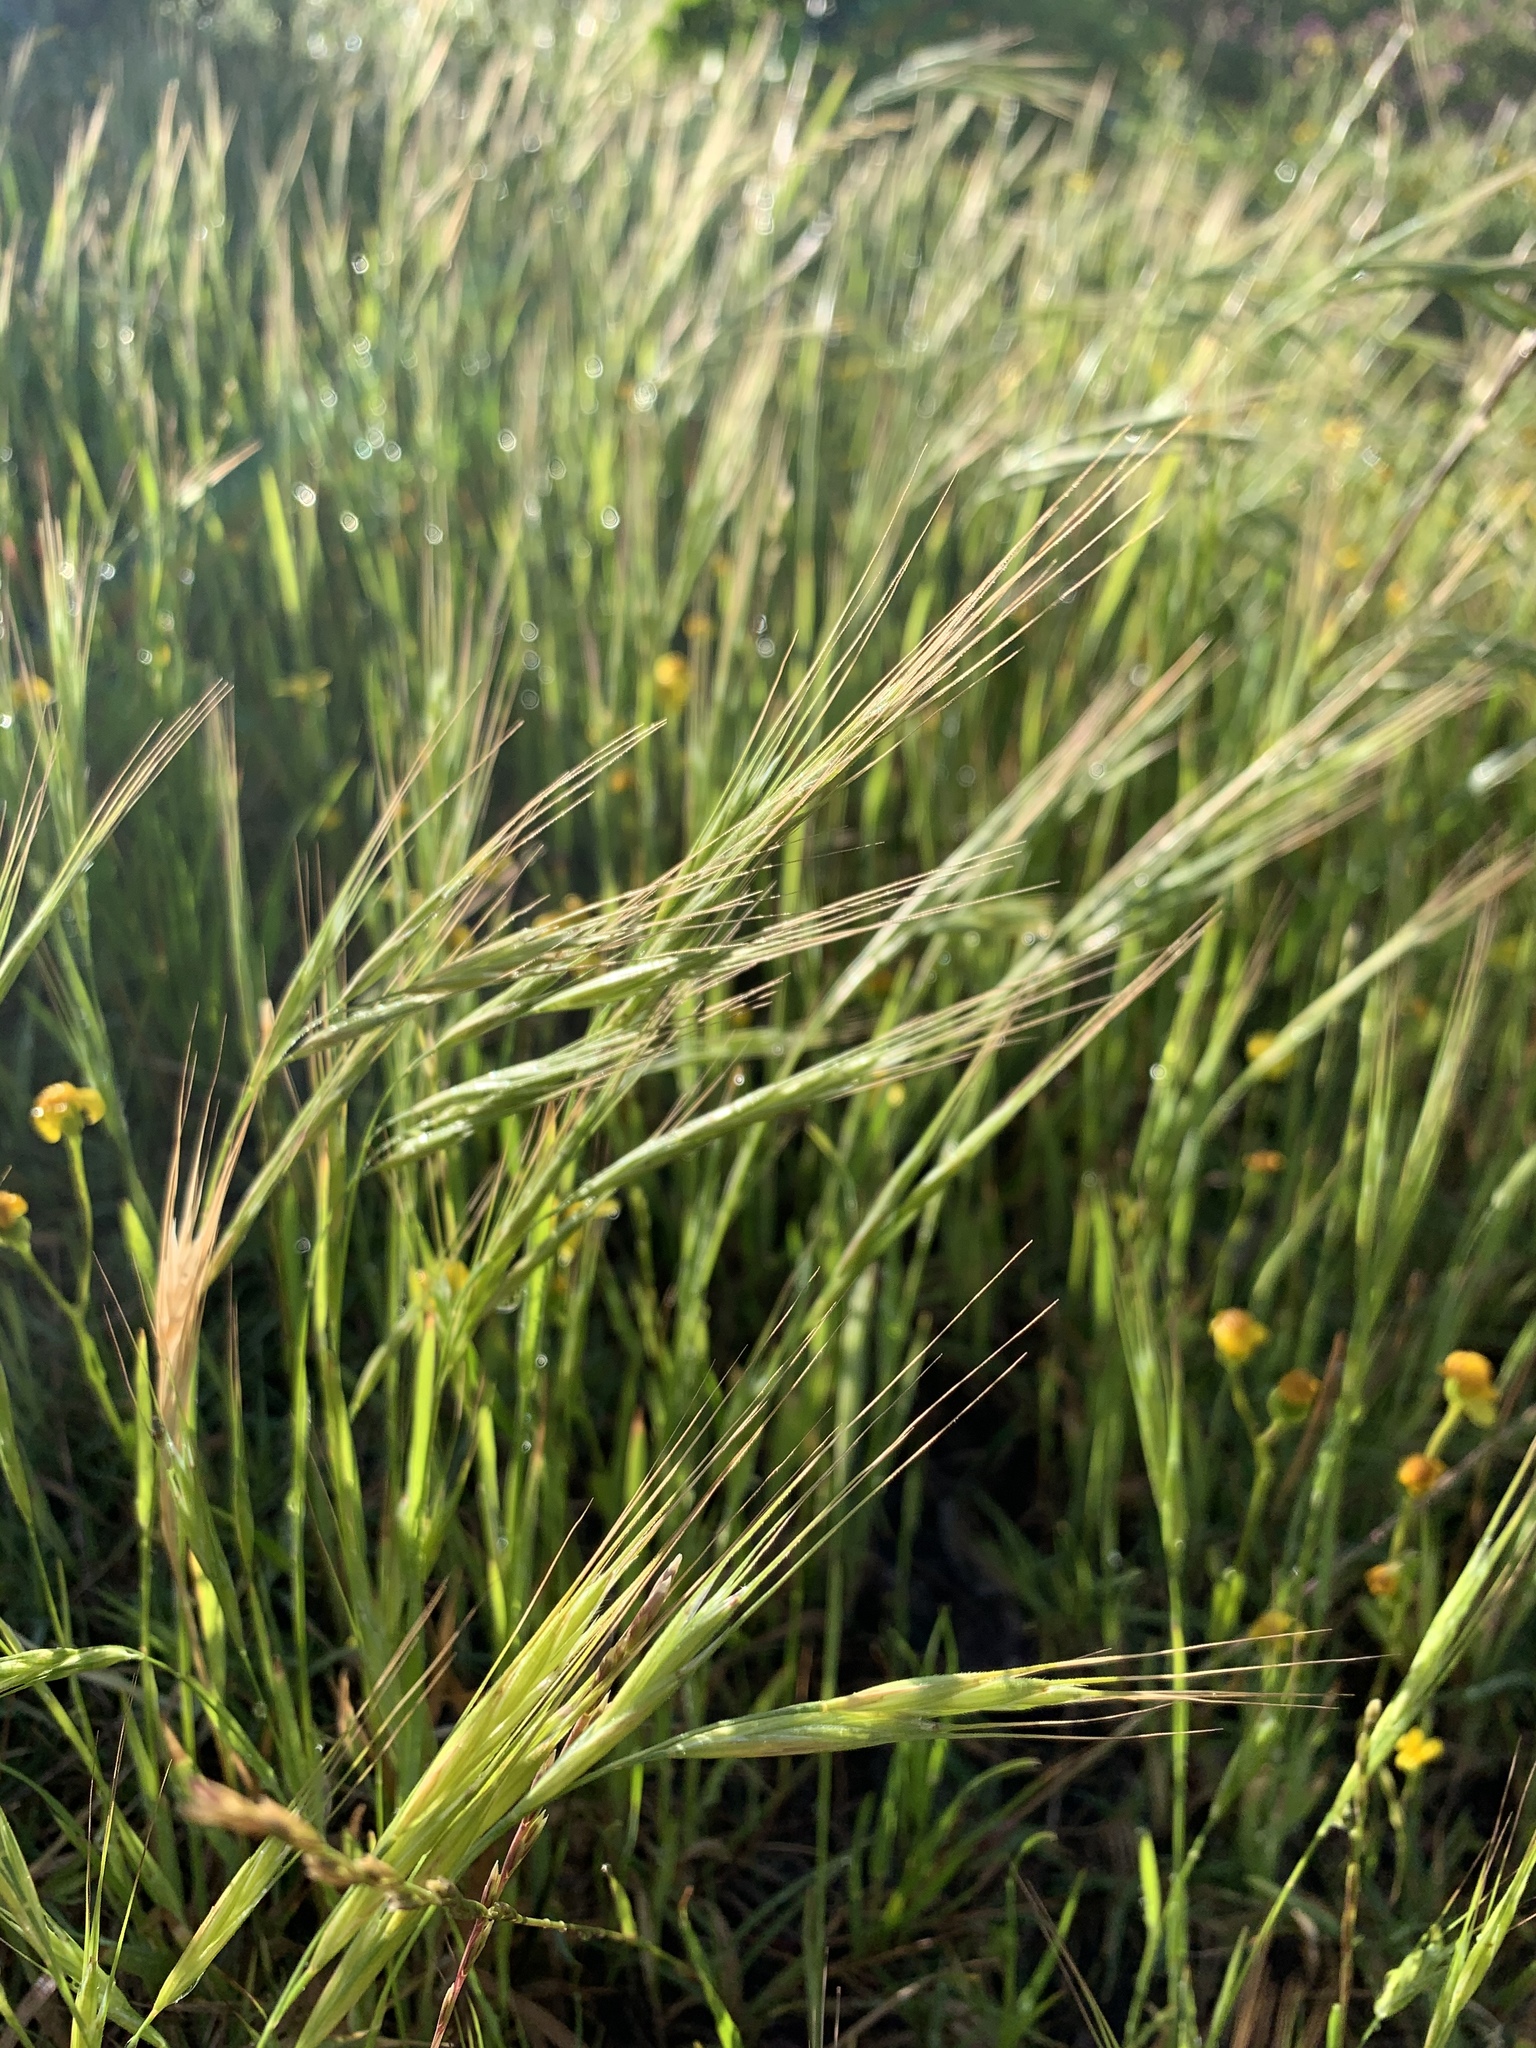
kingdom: Plantae
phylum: Tracheophyta
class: Liliopsida
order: Poales
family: Poaceae
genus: Bromus
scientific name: Bromus diandrus
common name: Ripgut brome
